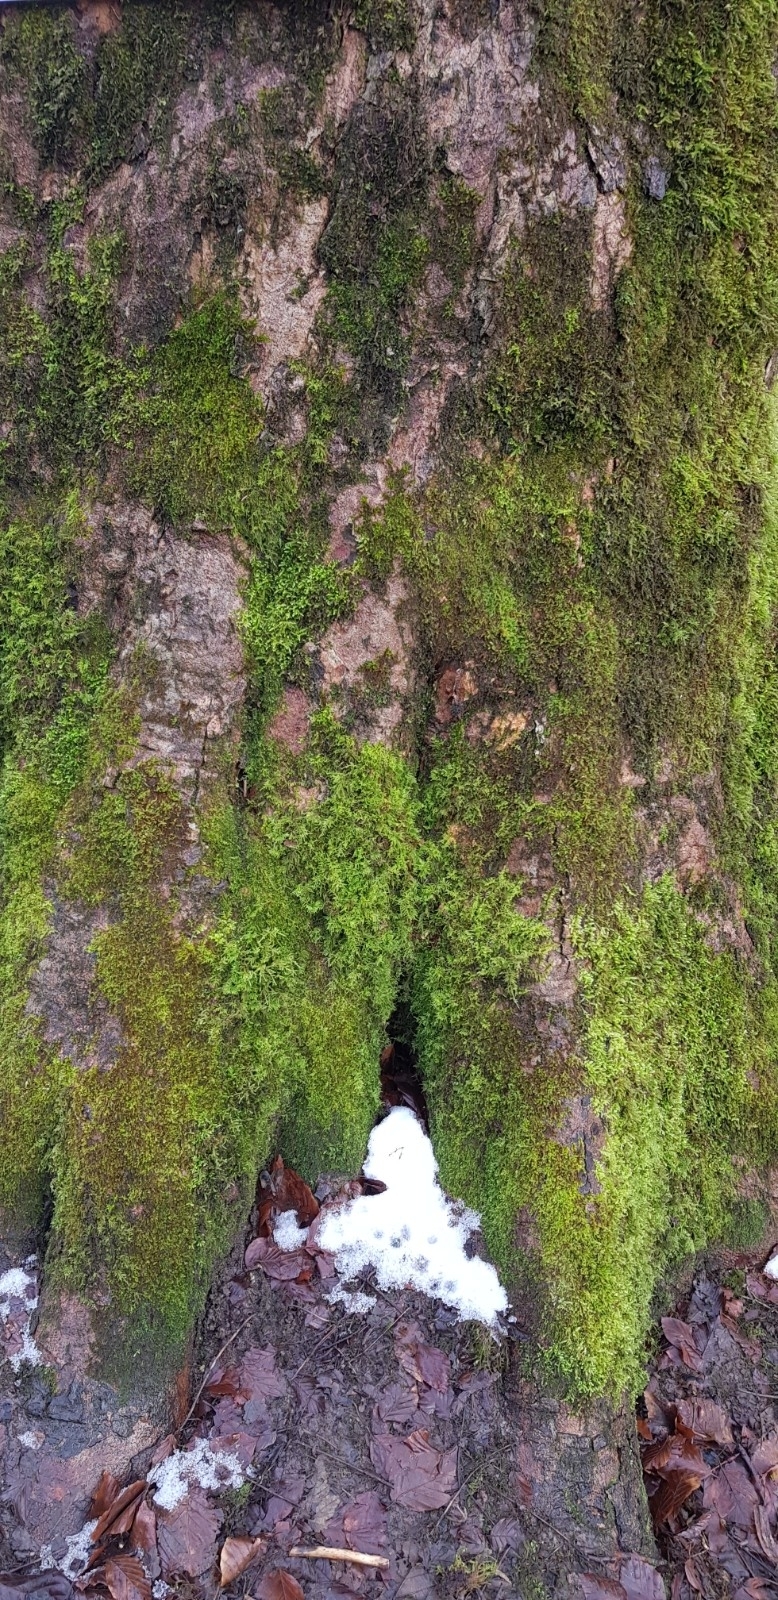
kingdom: Plantae
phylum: Bryophyta
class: Bryopsida
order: Hypnales
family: Brachytheciaceae
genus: Kindbergia
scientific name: Kindbergia praelonga
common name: Slender beaked moss
